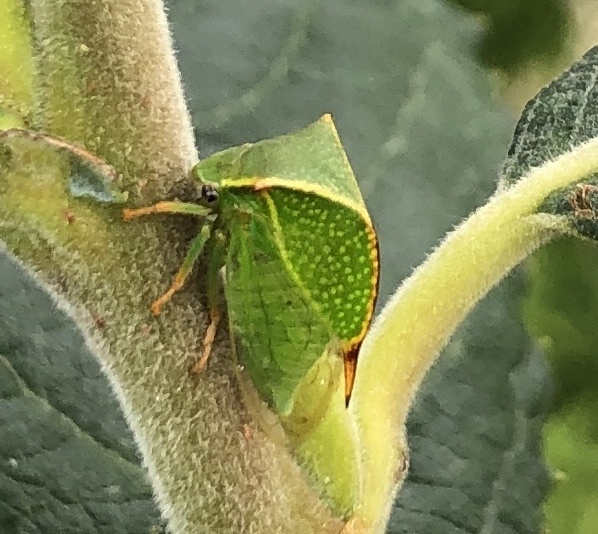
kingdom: Animalia
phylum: Arthropoda
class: Insecta
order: Hemiptera
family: Membracidae
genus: Stictocephala
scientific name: Stictocephala bisonia
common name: American buffalo treehopper
